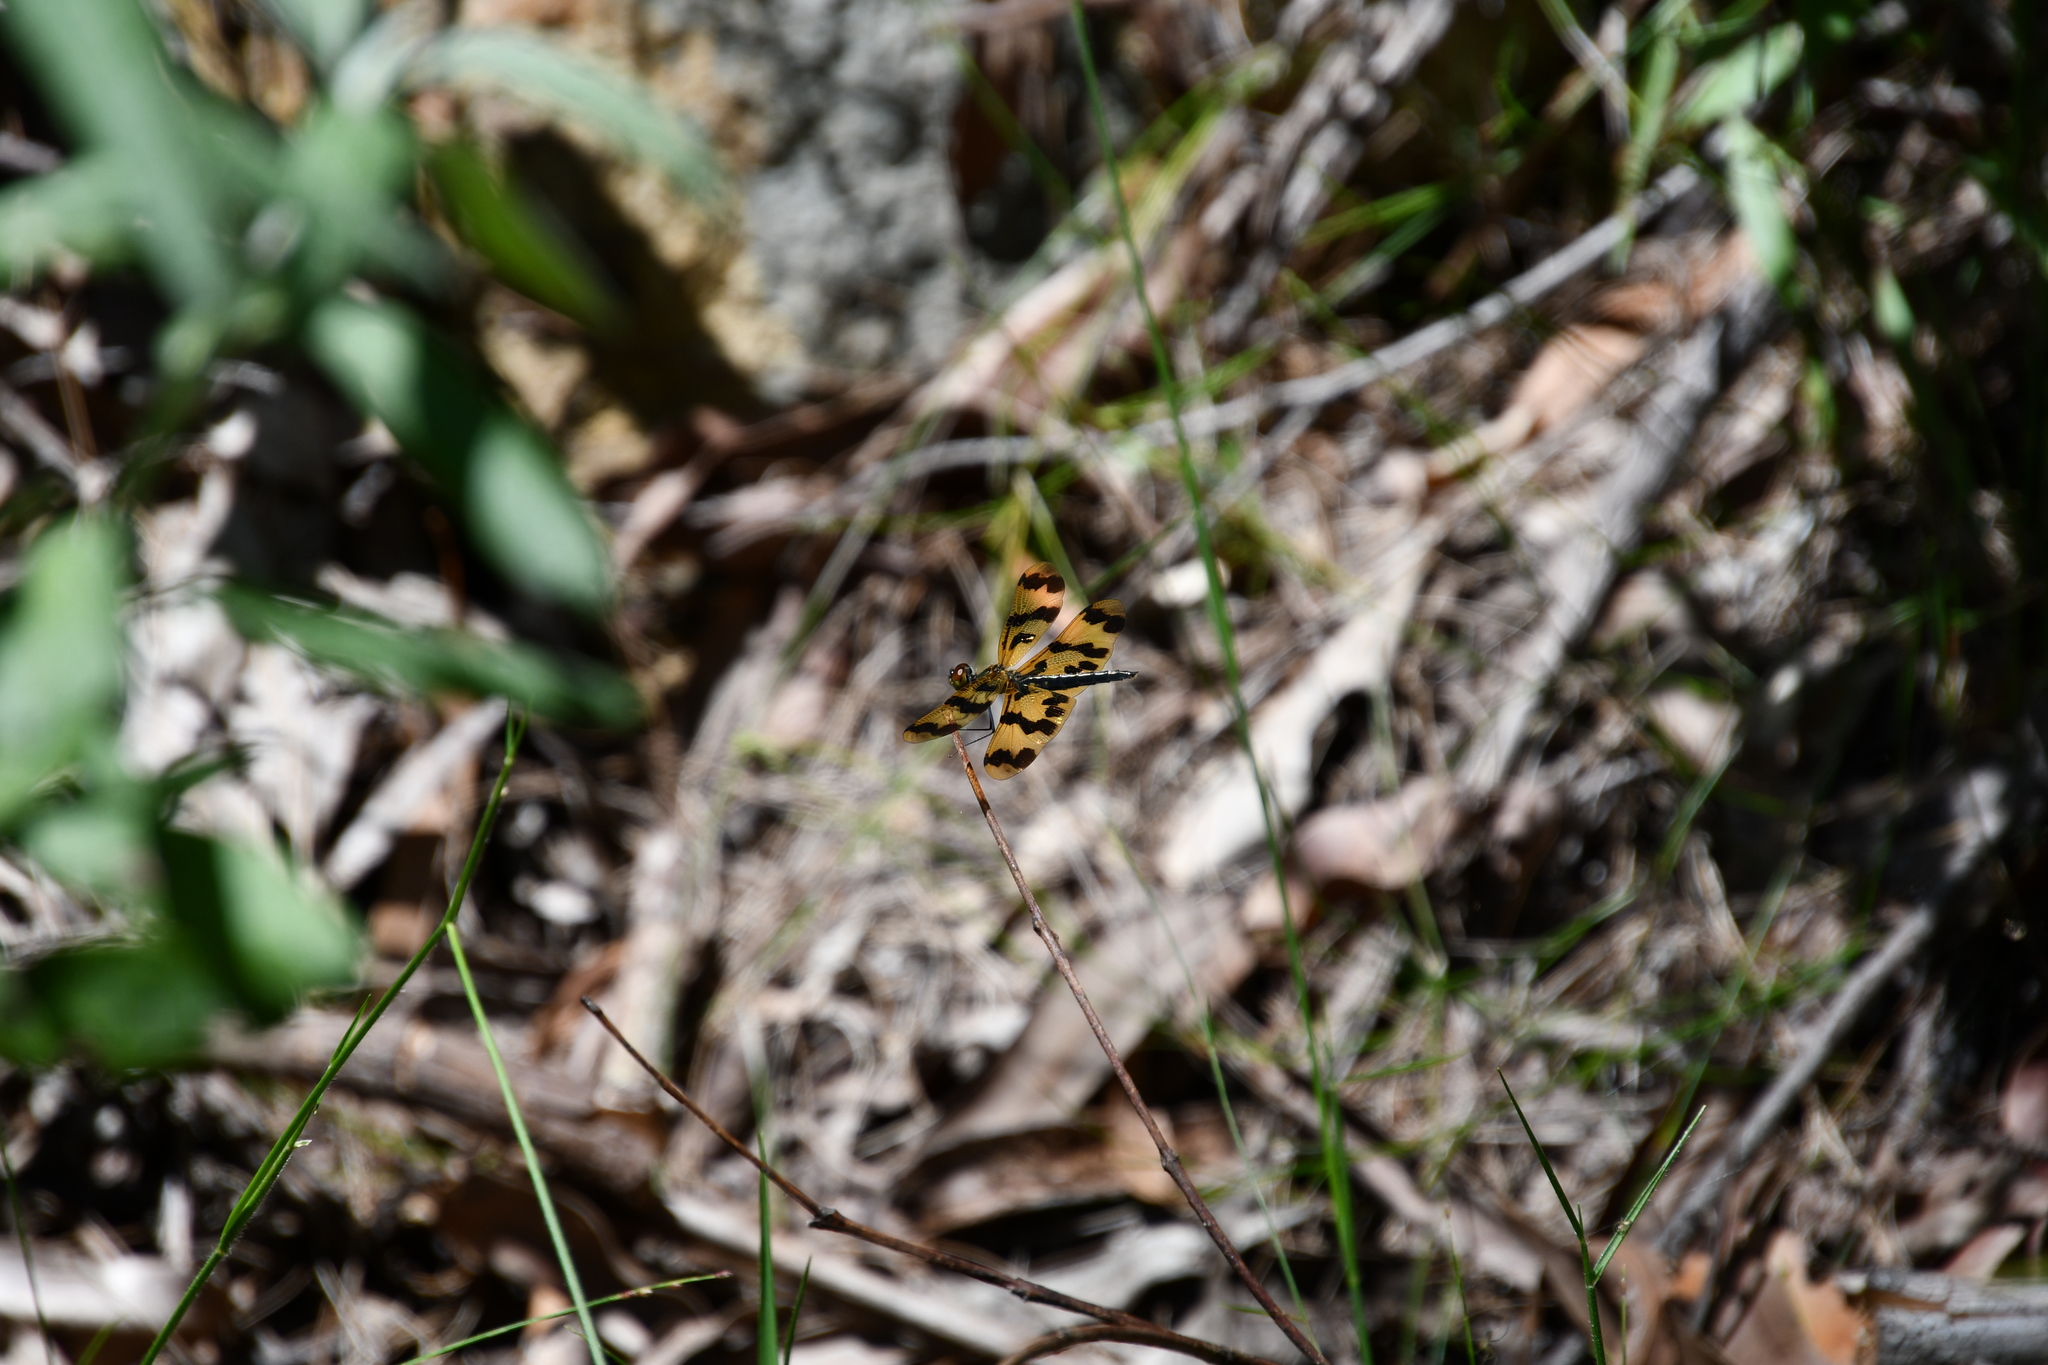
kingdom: Animalia
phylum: Arthropoda
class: Insecta
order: Odonata
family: Libellulidae
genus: Rhyothemis
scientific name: Rhyothemis graphiptera
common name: Graphic flutterer
